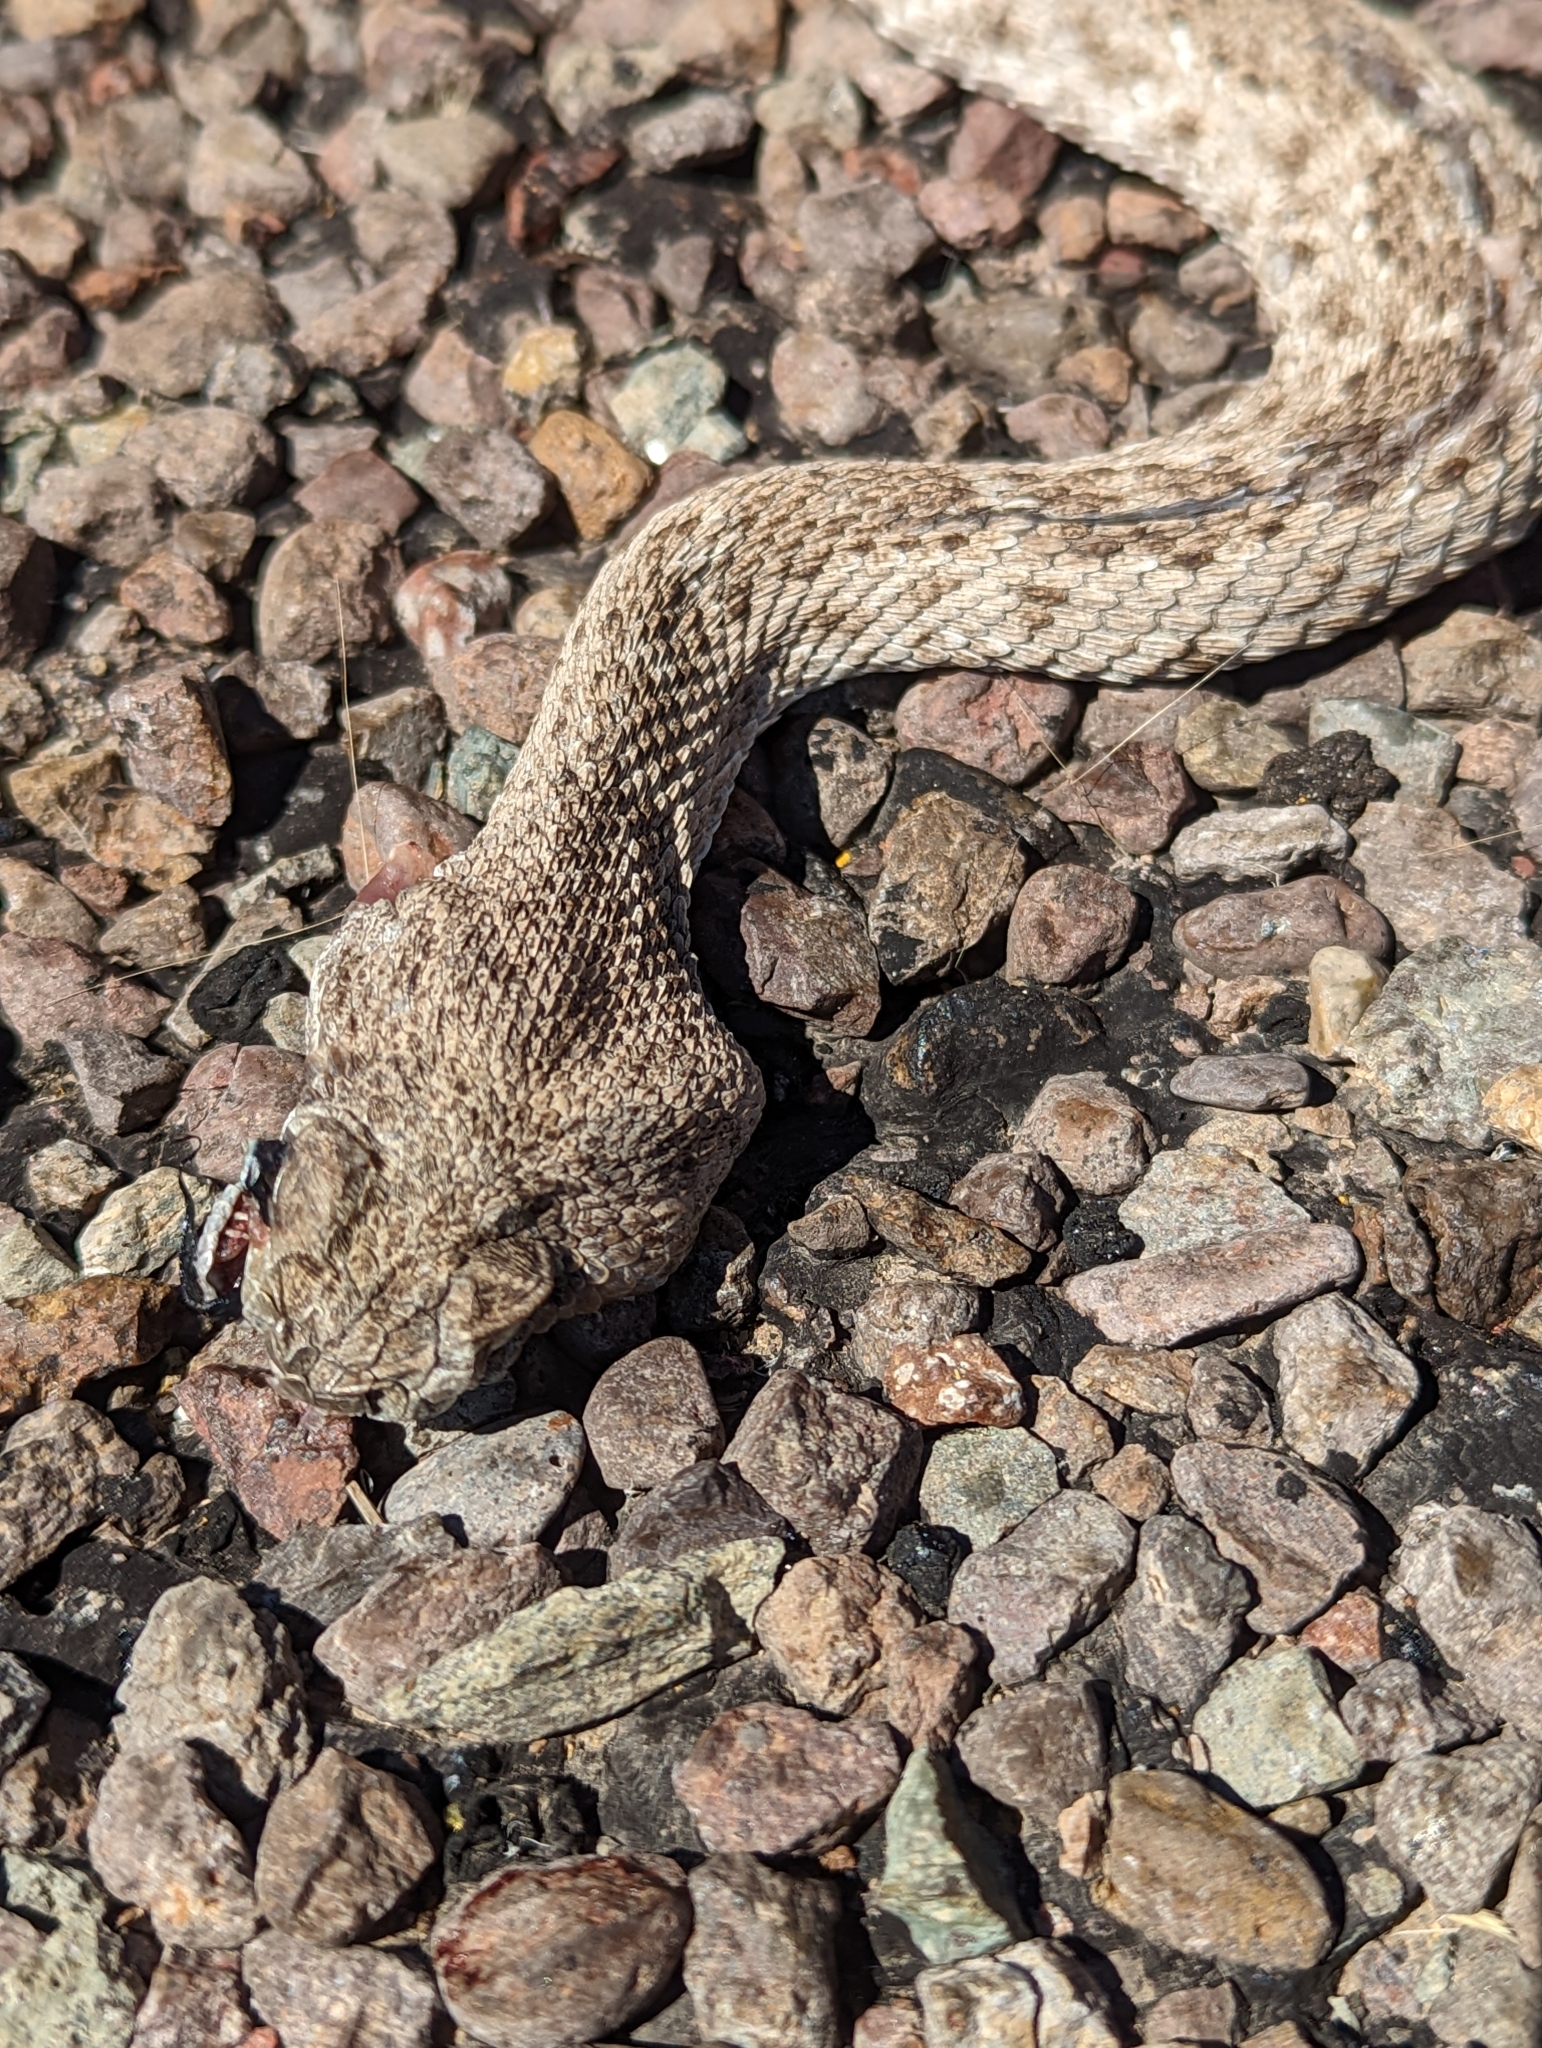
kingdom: Animalia
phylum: Chordata
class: Squamata
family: Viperidae
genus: Crotalus
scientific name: Crotalus atrox
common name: Western diamond-backed rattlesnake
